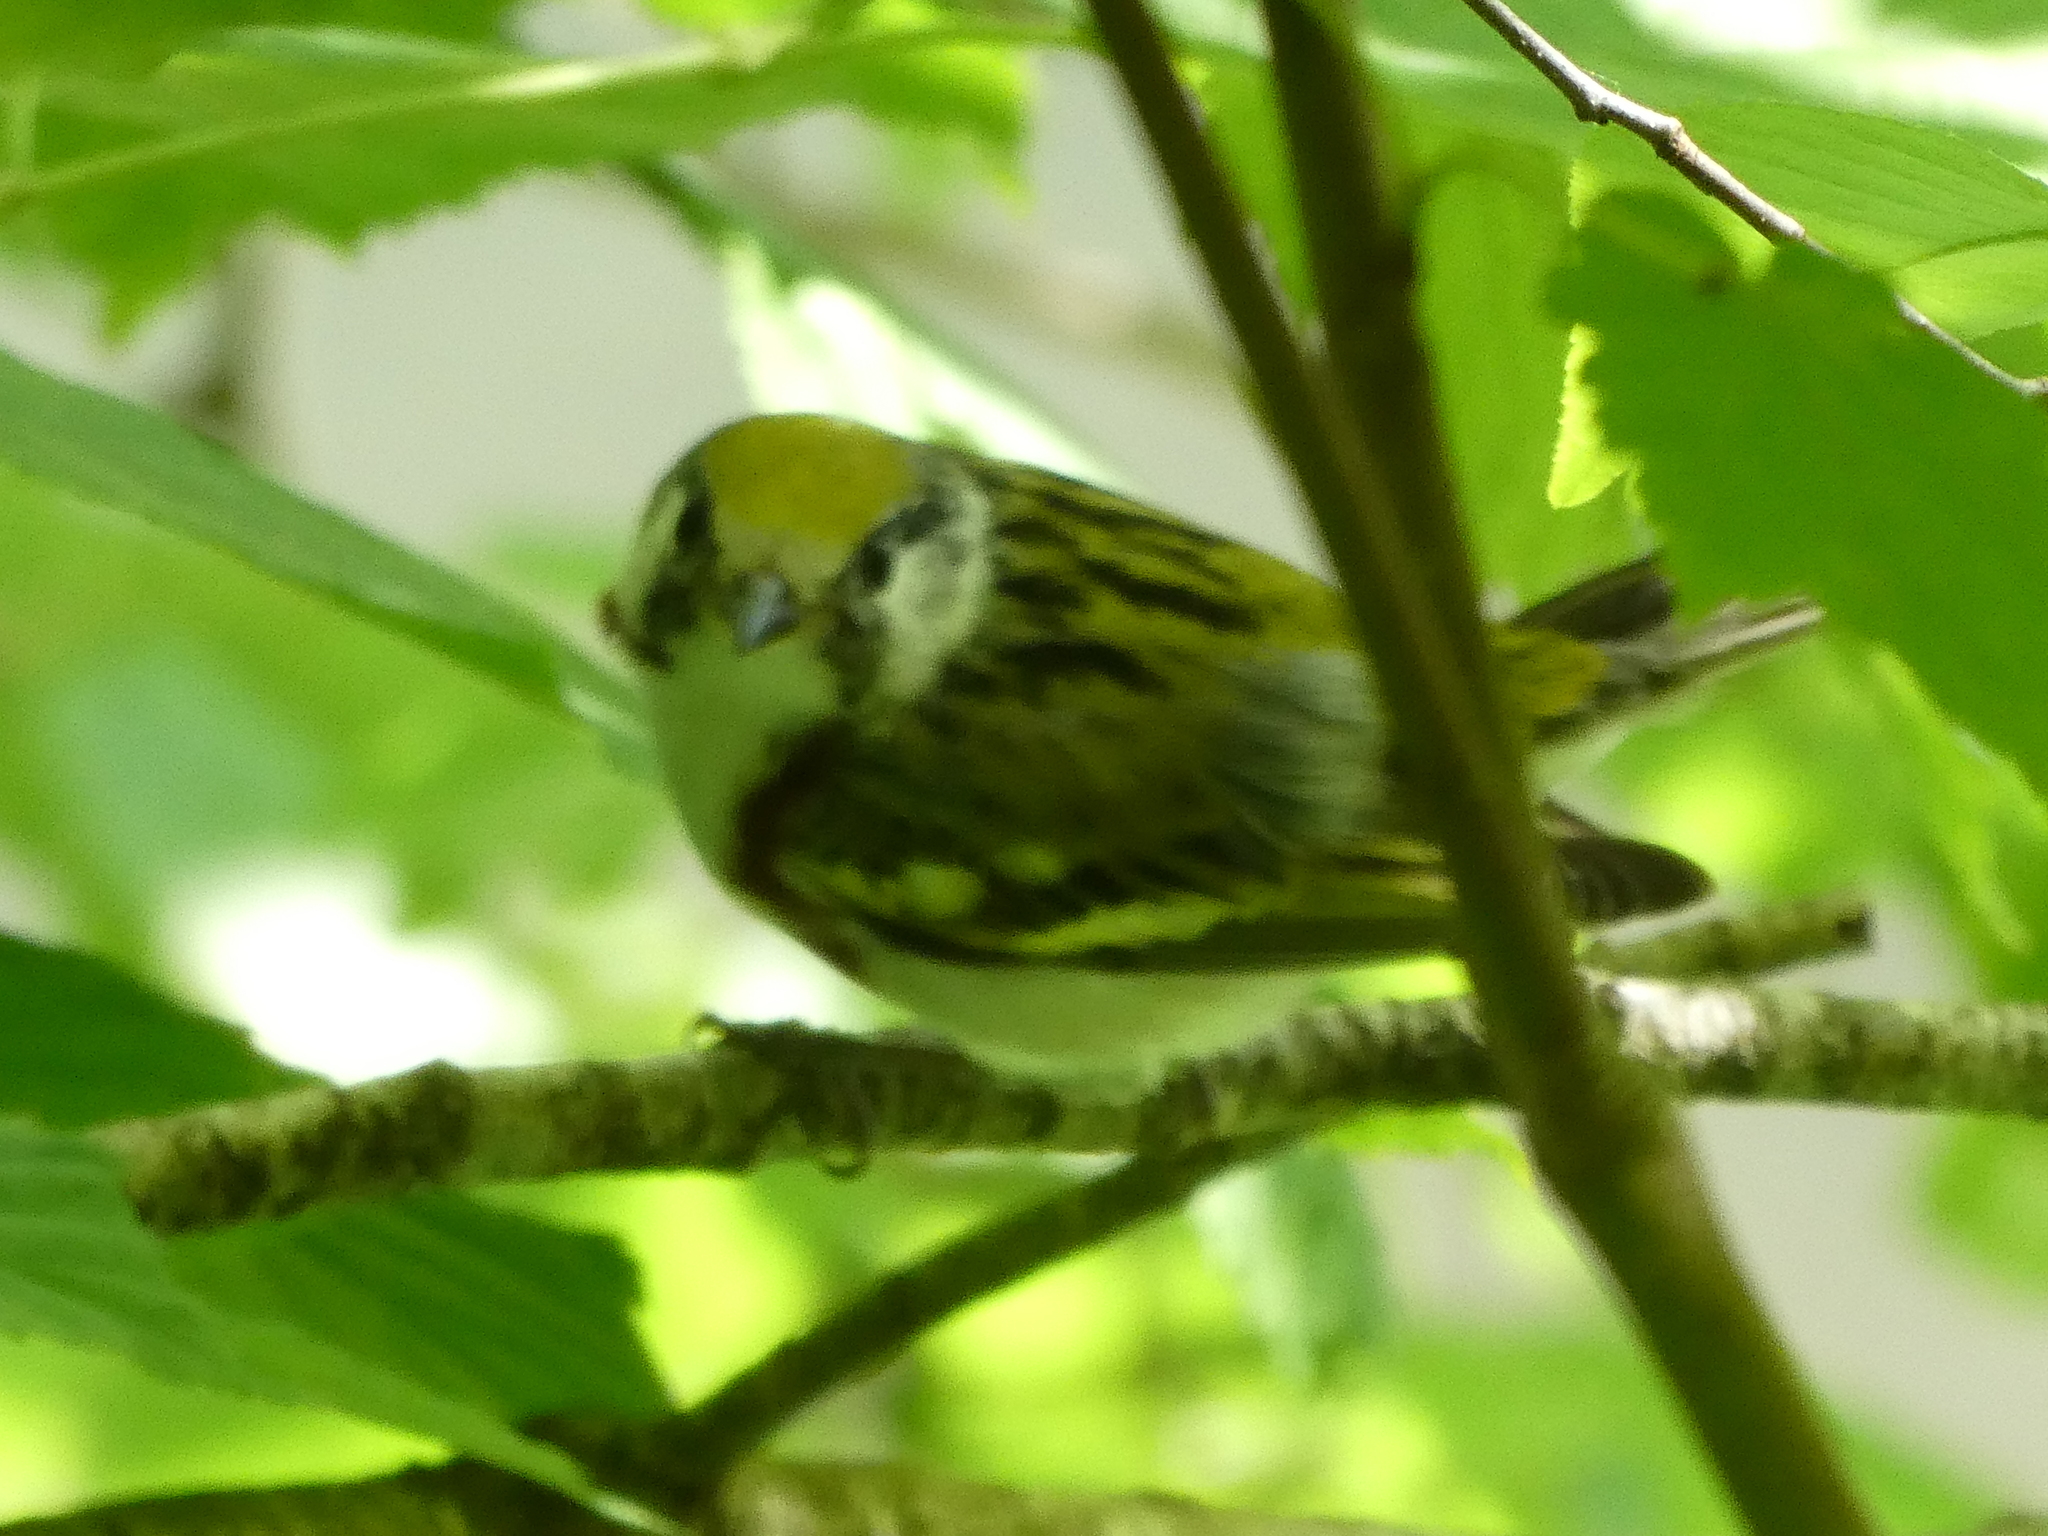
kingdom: Animalia
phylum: Chordata
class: Aves
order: Passeriformes
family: Parulidae
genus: Setophaga
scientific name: Setophaga pensylvanica
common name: Chestnut-sided warbler
